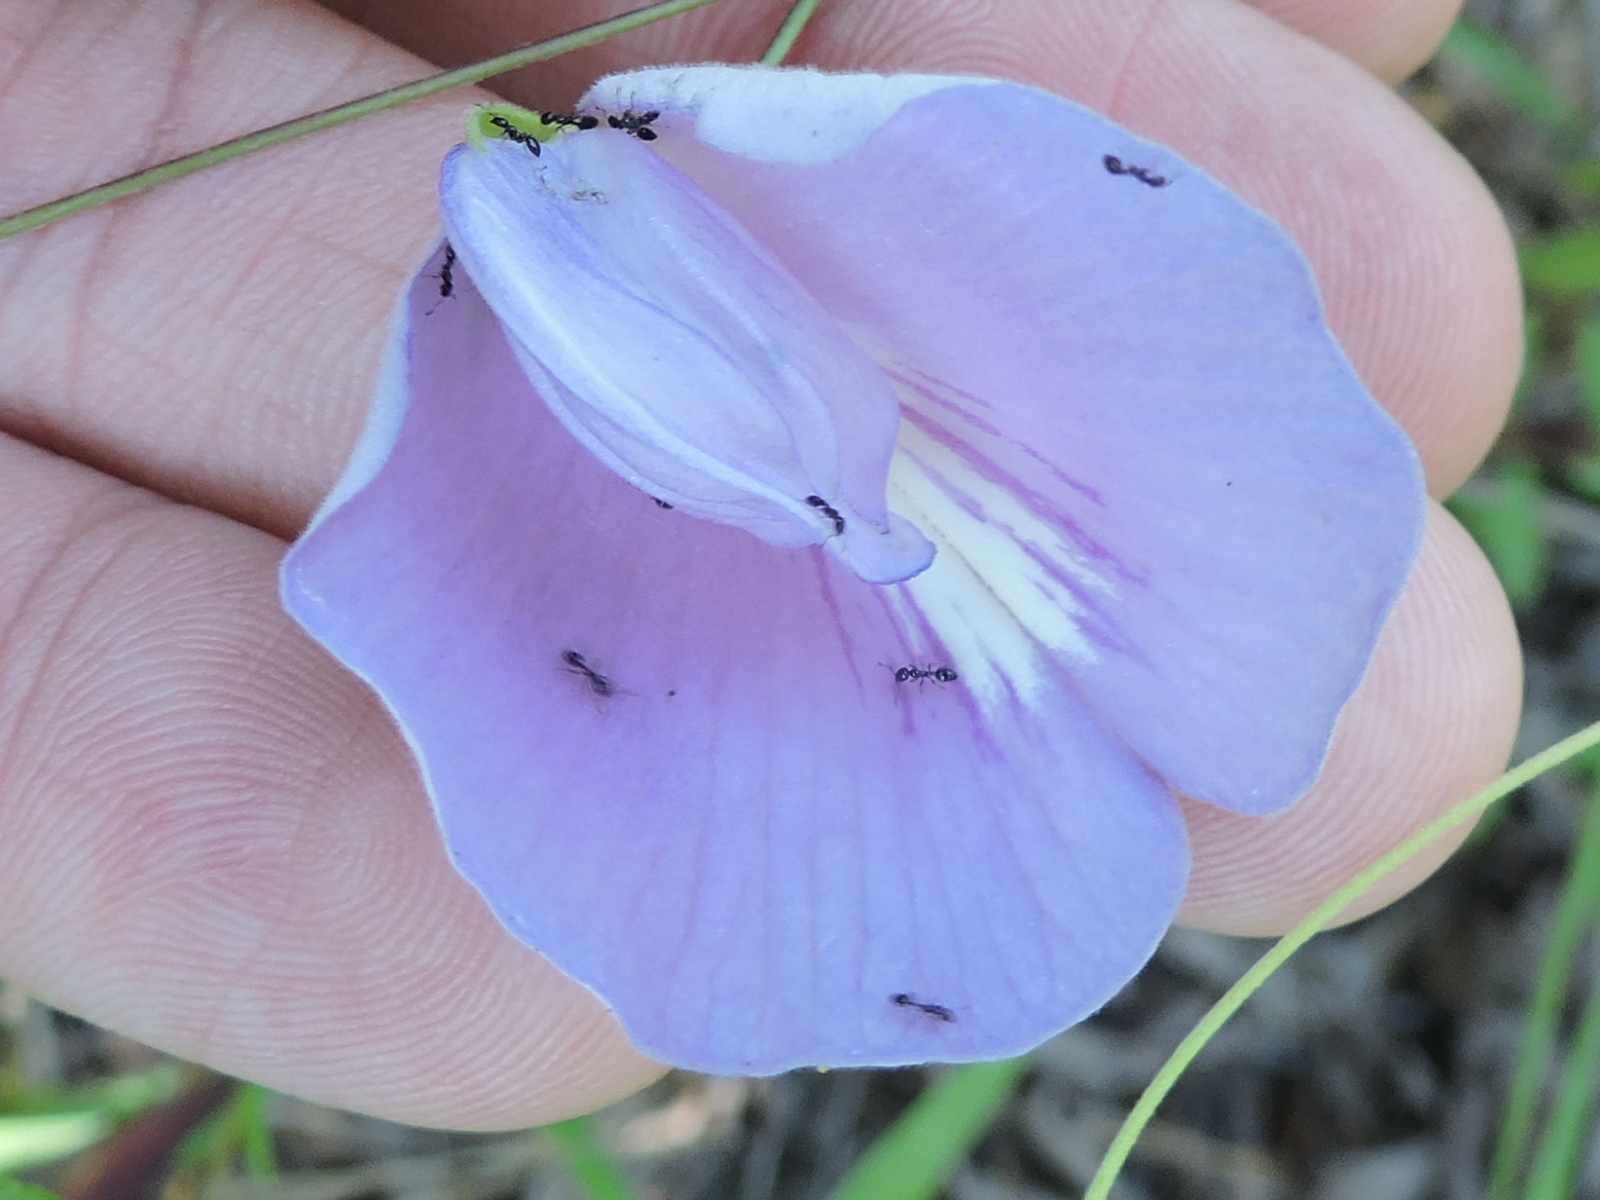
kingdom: Plantae
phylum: Tracheophyta
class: Magnoliopsida
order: Fabales
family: Fabaceae
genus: Centrosema
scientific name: Centrosema virginianum
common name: Butterfly-pea
